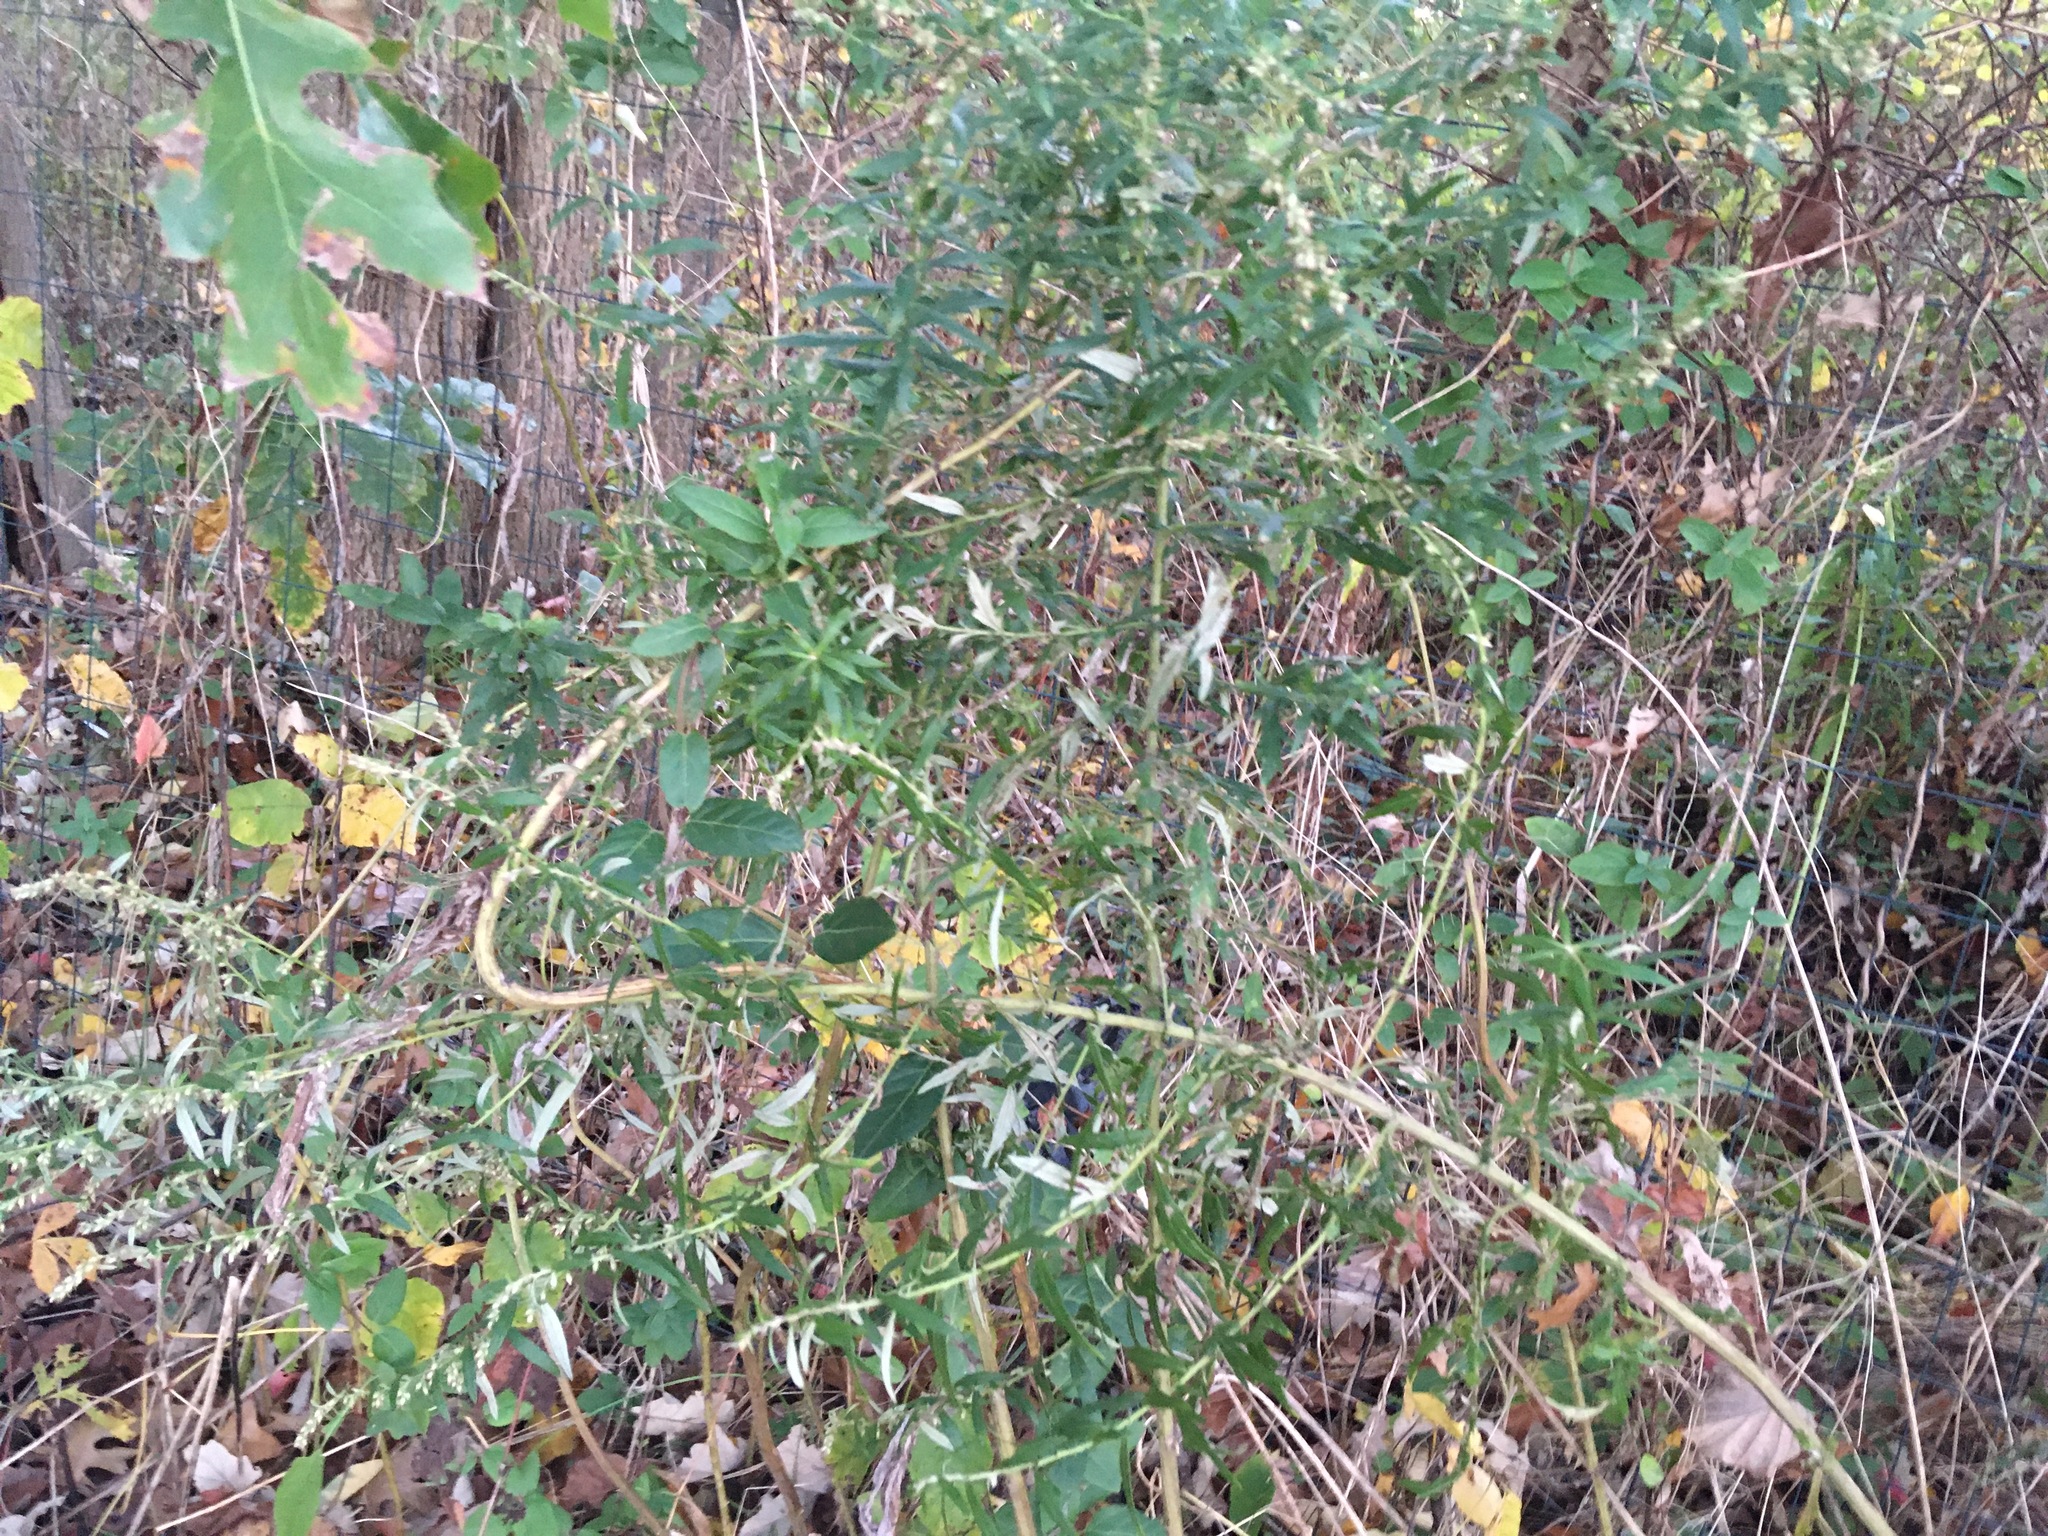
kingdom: Plantae
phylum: Tracheophyta
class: Magnoliopsida
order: Asterales
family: Asteraceae
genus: Artemisia
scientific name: Artemisia vulgaris
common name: Mugwort
